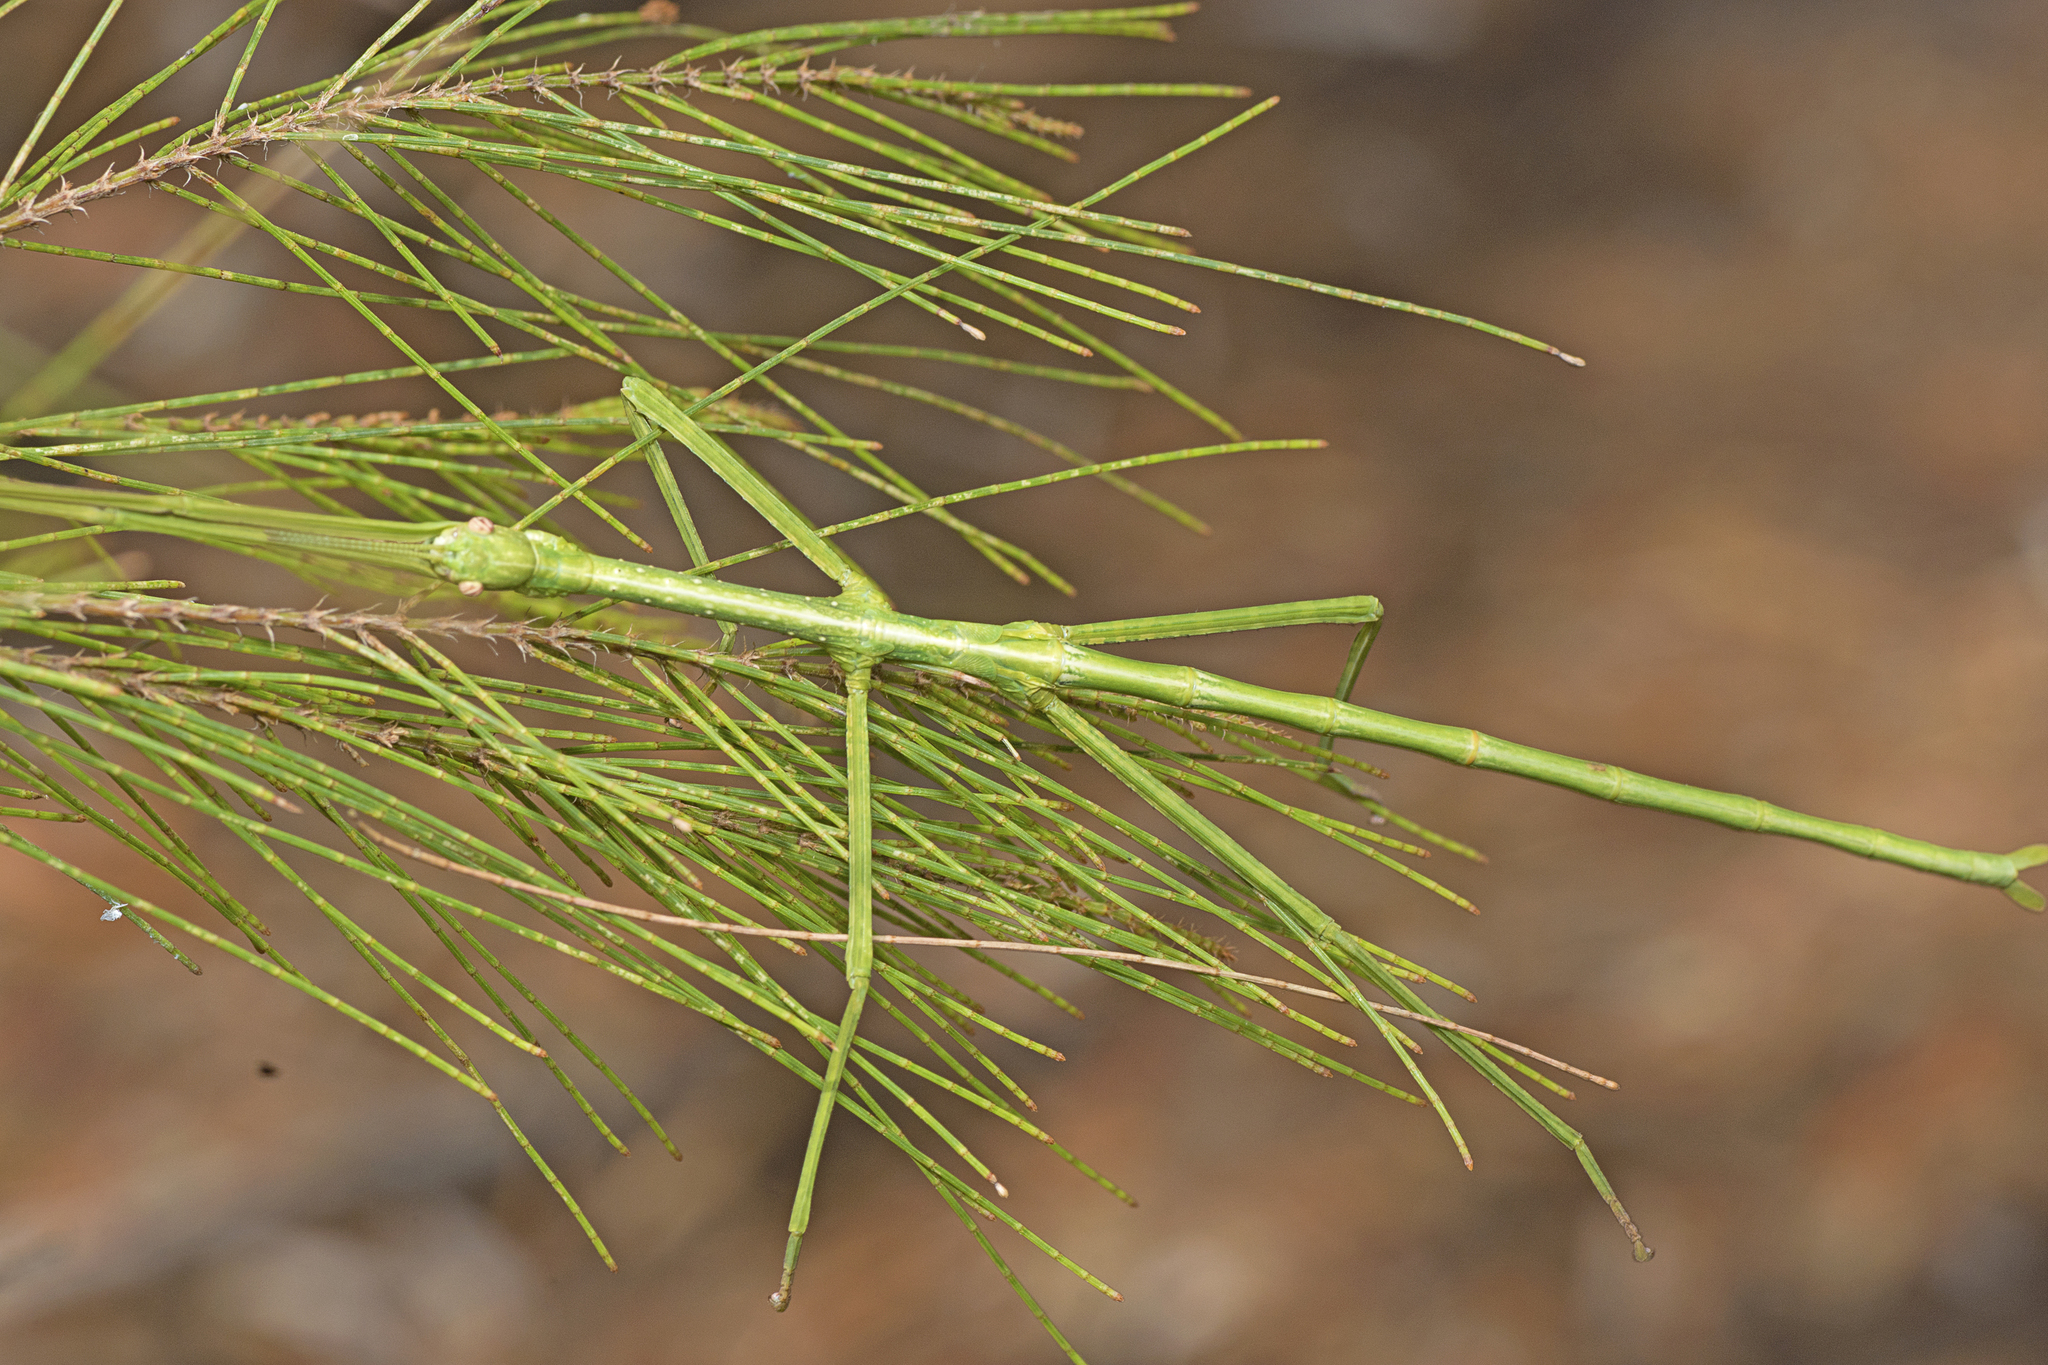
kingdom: Animalia
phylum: Arthropoda
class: Insecta
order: Phasmida
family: Phasmatidae
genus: Anchiale
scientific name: Anchiale austrotessulata
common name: Tessellated stick-insect
